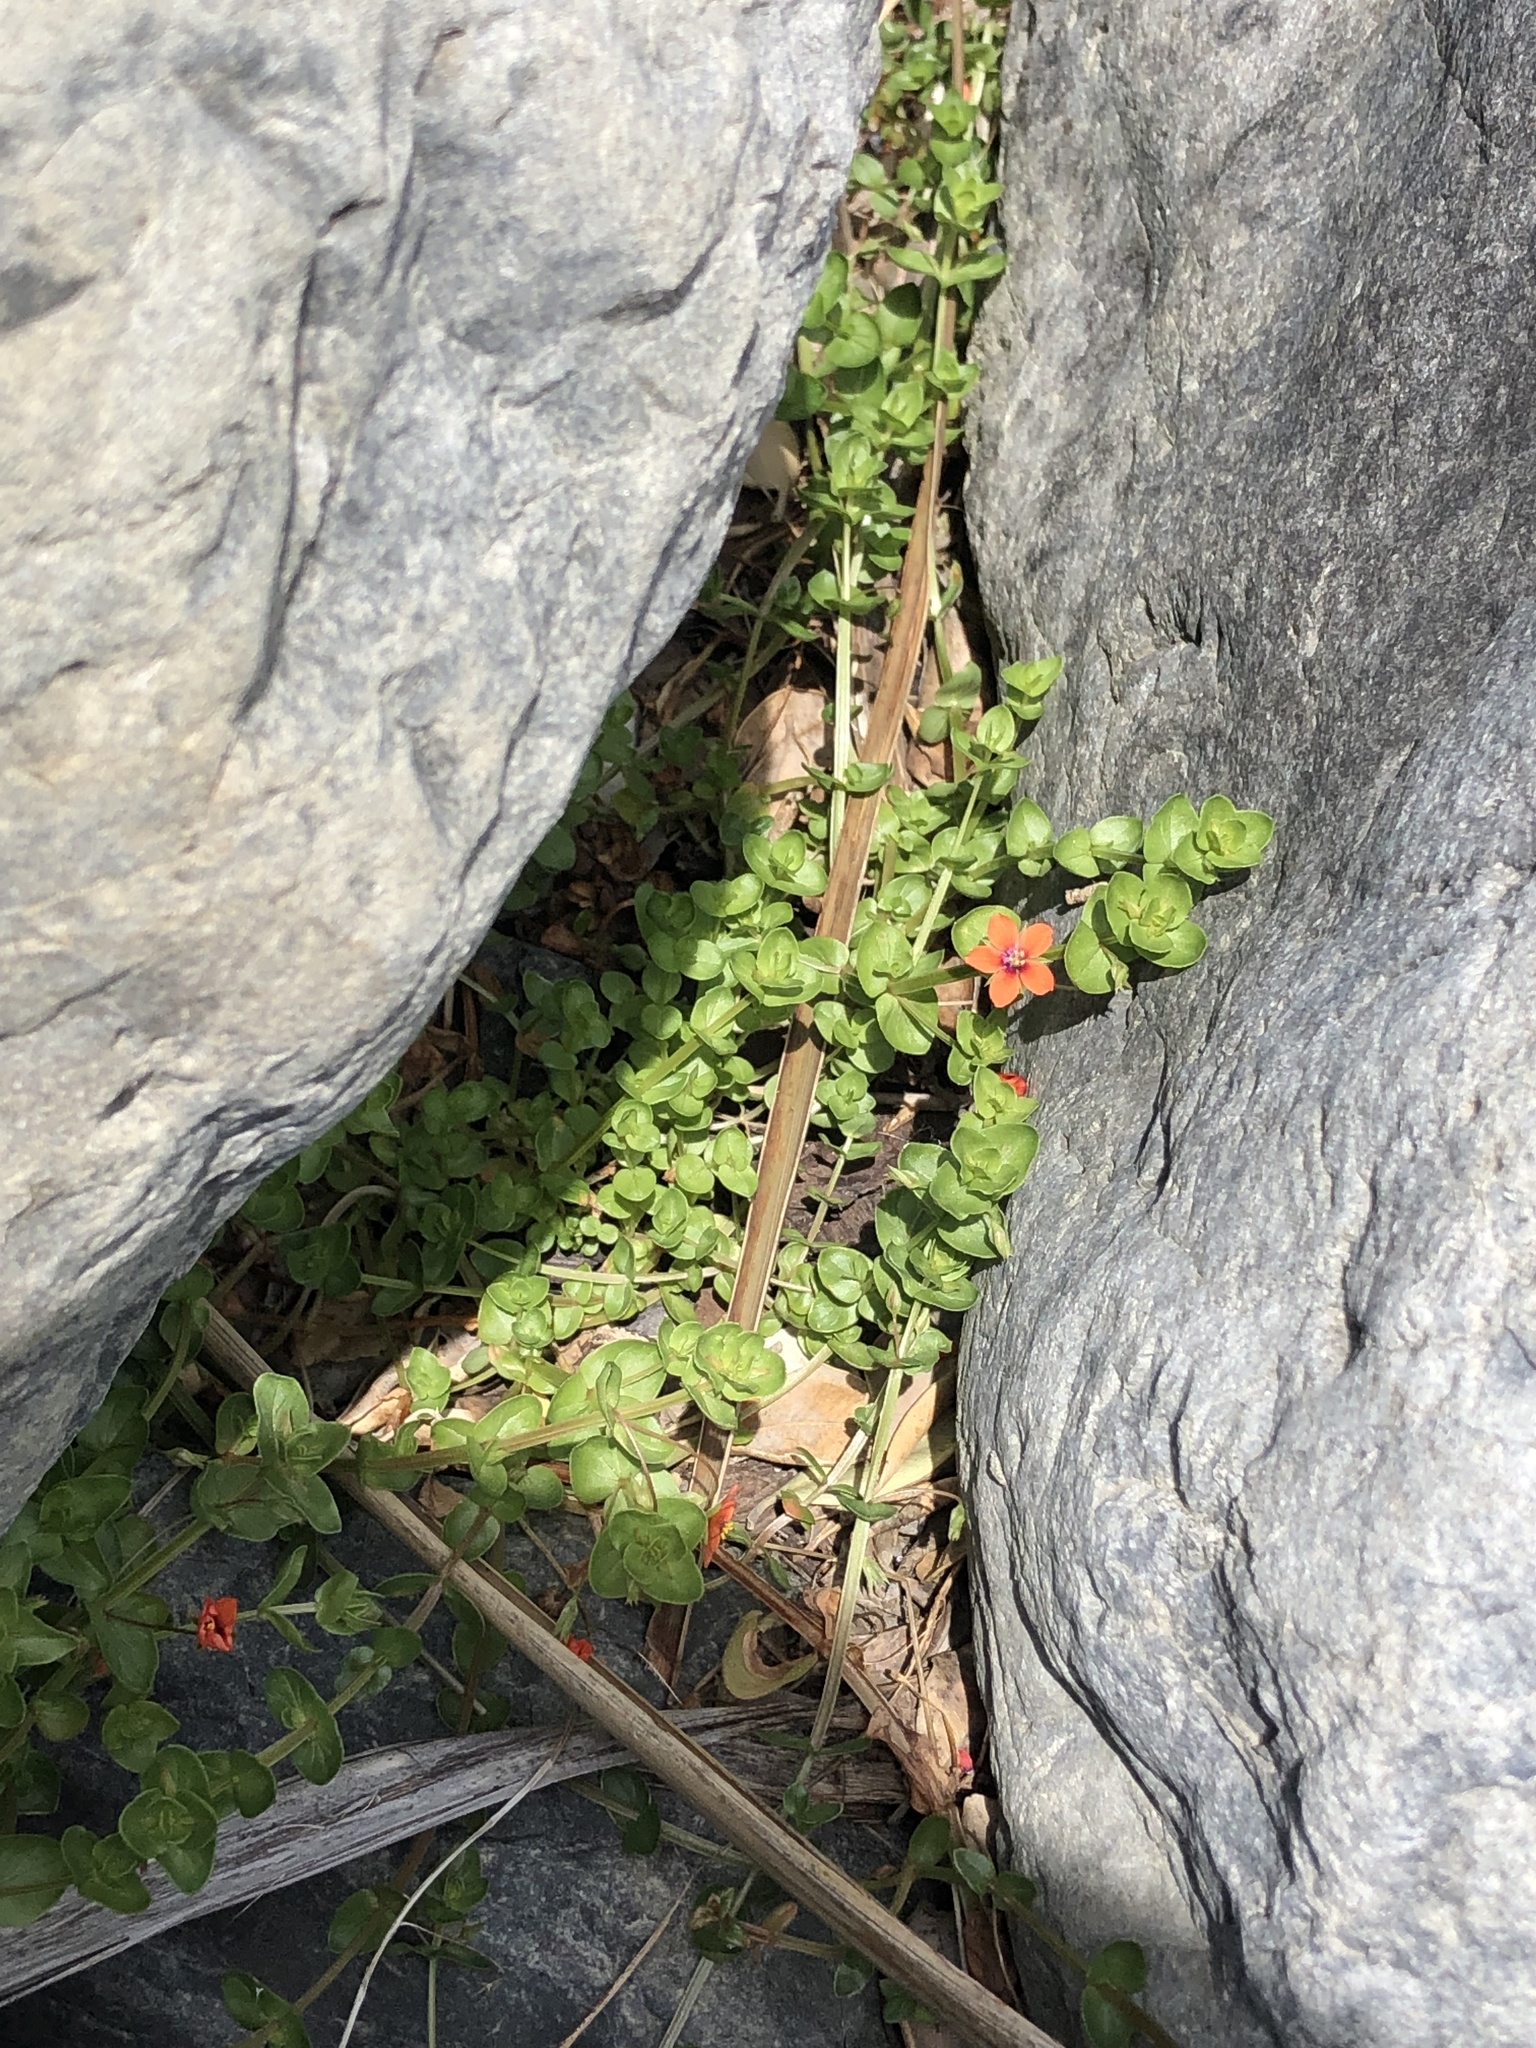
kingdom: Plantae
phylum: Tracheophyta
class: Magnoliopsida
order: Ericales
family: Primulaceae
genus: Lysimachia
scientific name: Lysimachia arvensis
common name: Scarlet pimpernel
